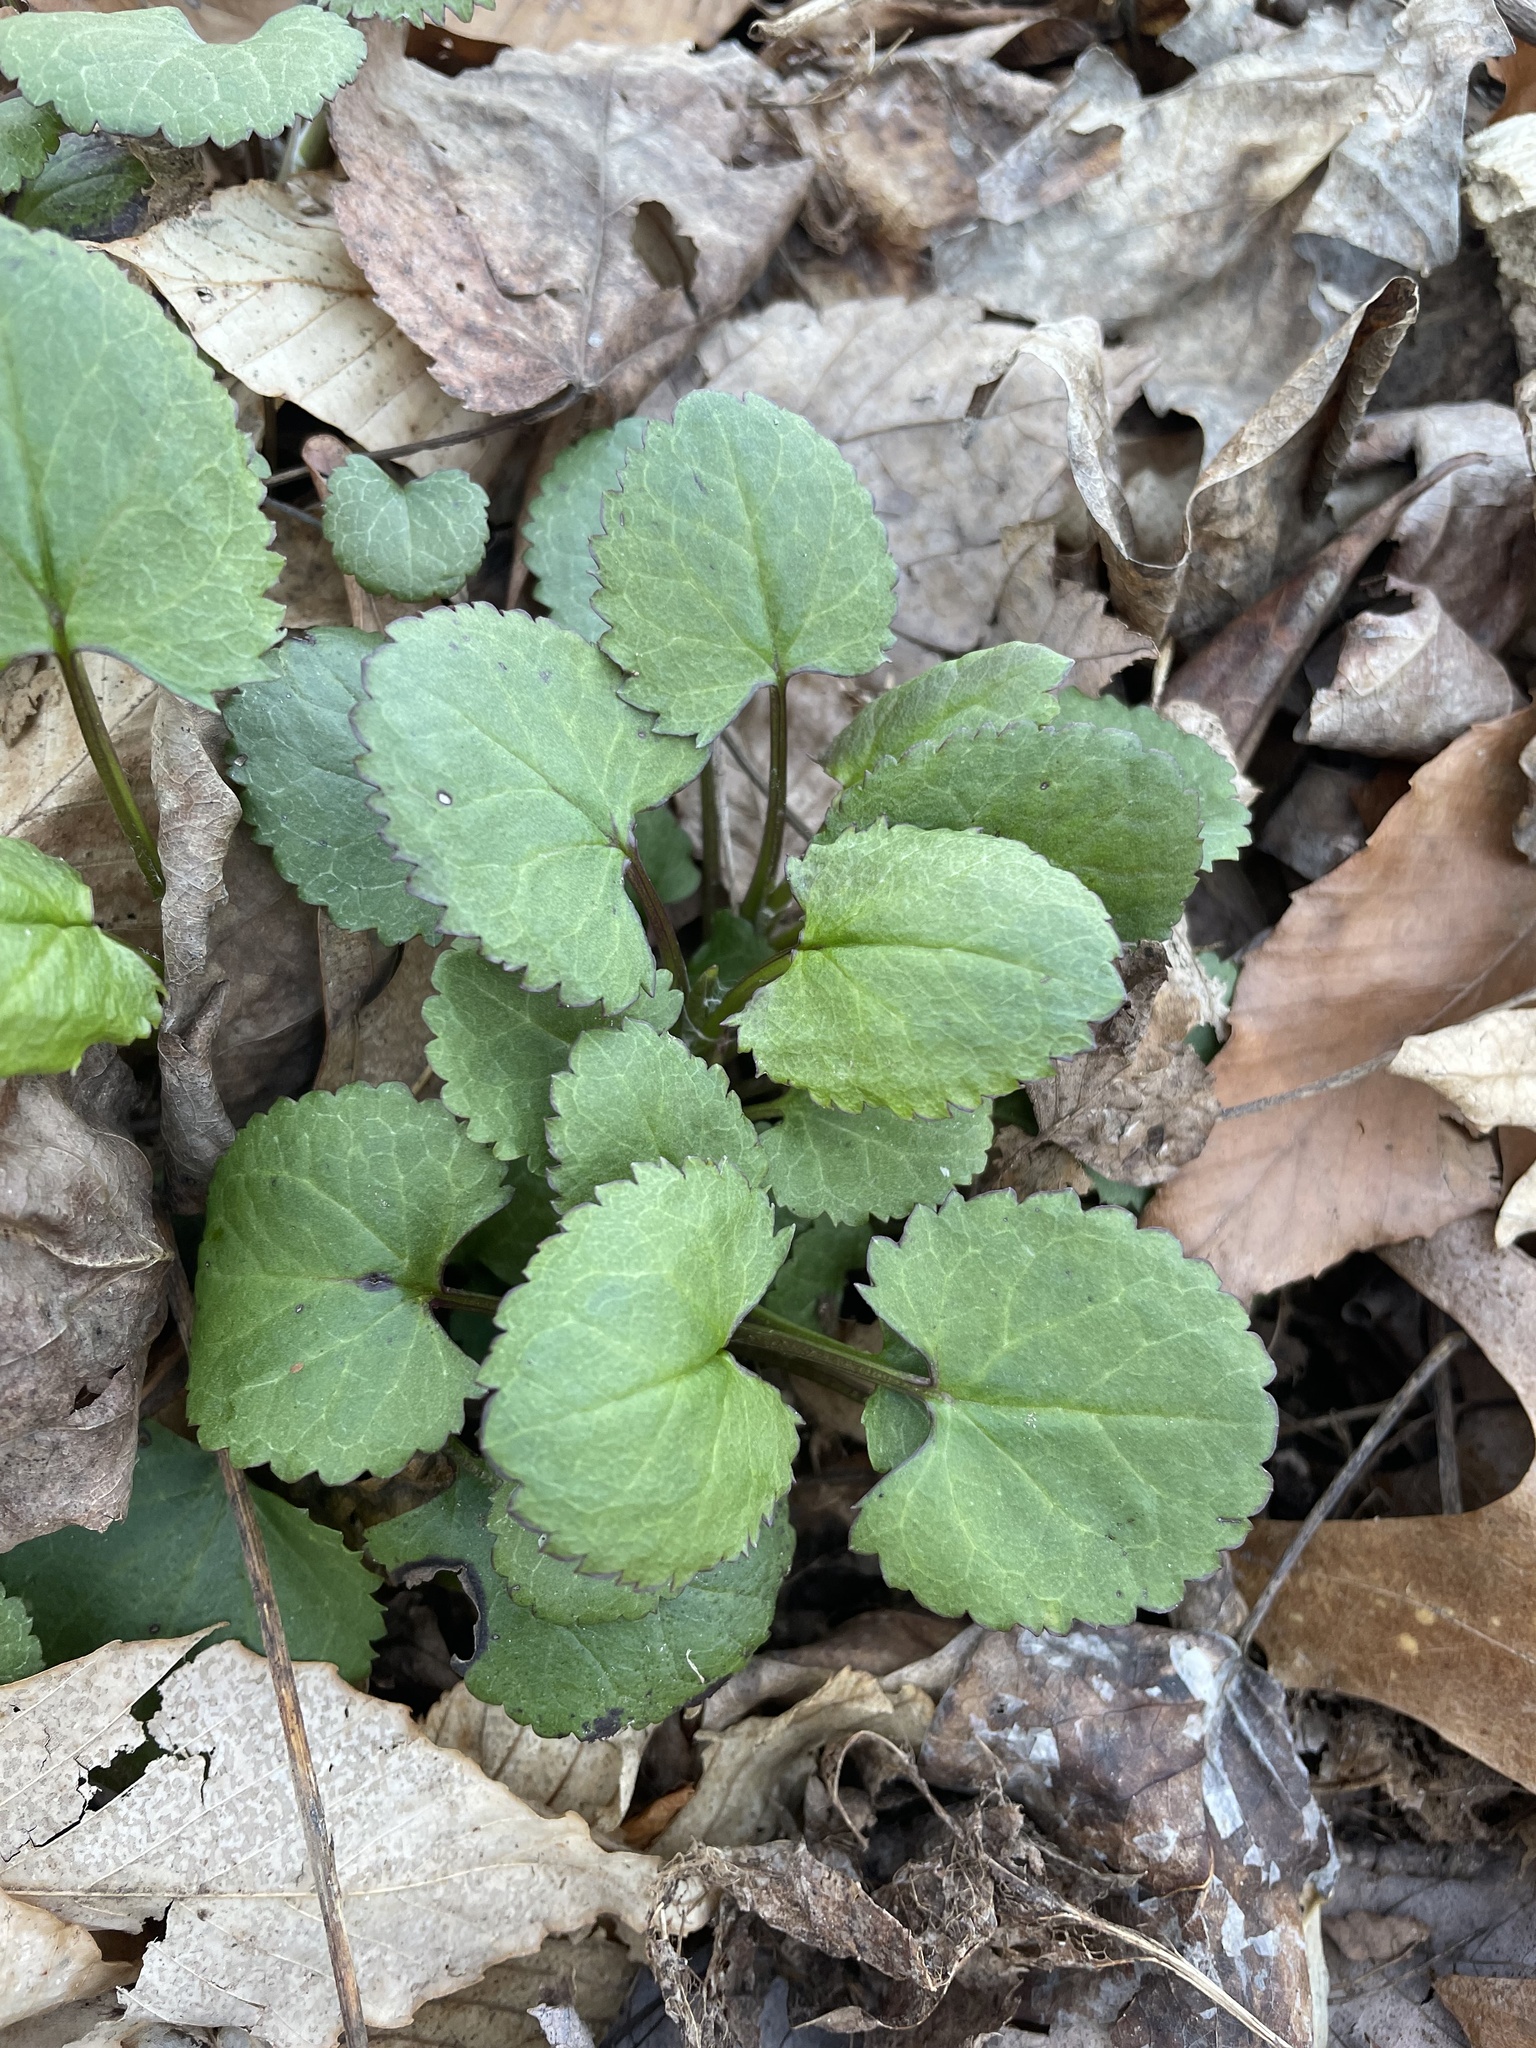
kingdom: Plantae
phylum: Tracheophyta
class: Magnoliopsida
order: Asterales
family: Asteraceae
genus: Packera
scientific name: Packera aurea
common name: Golden groundsel
